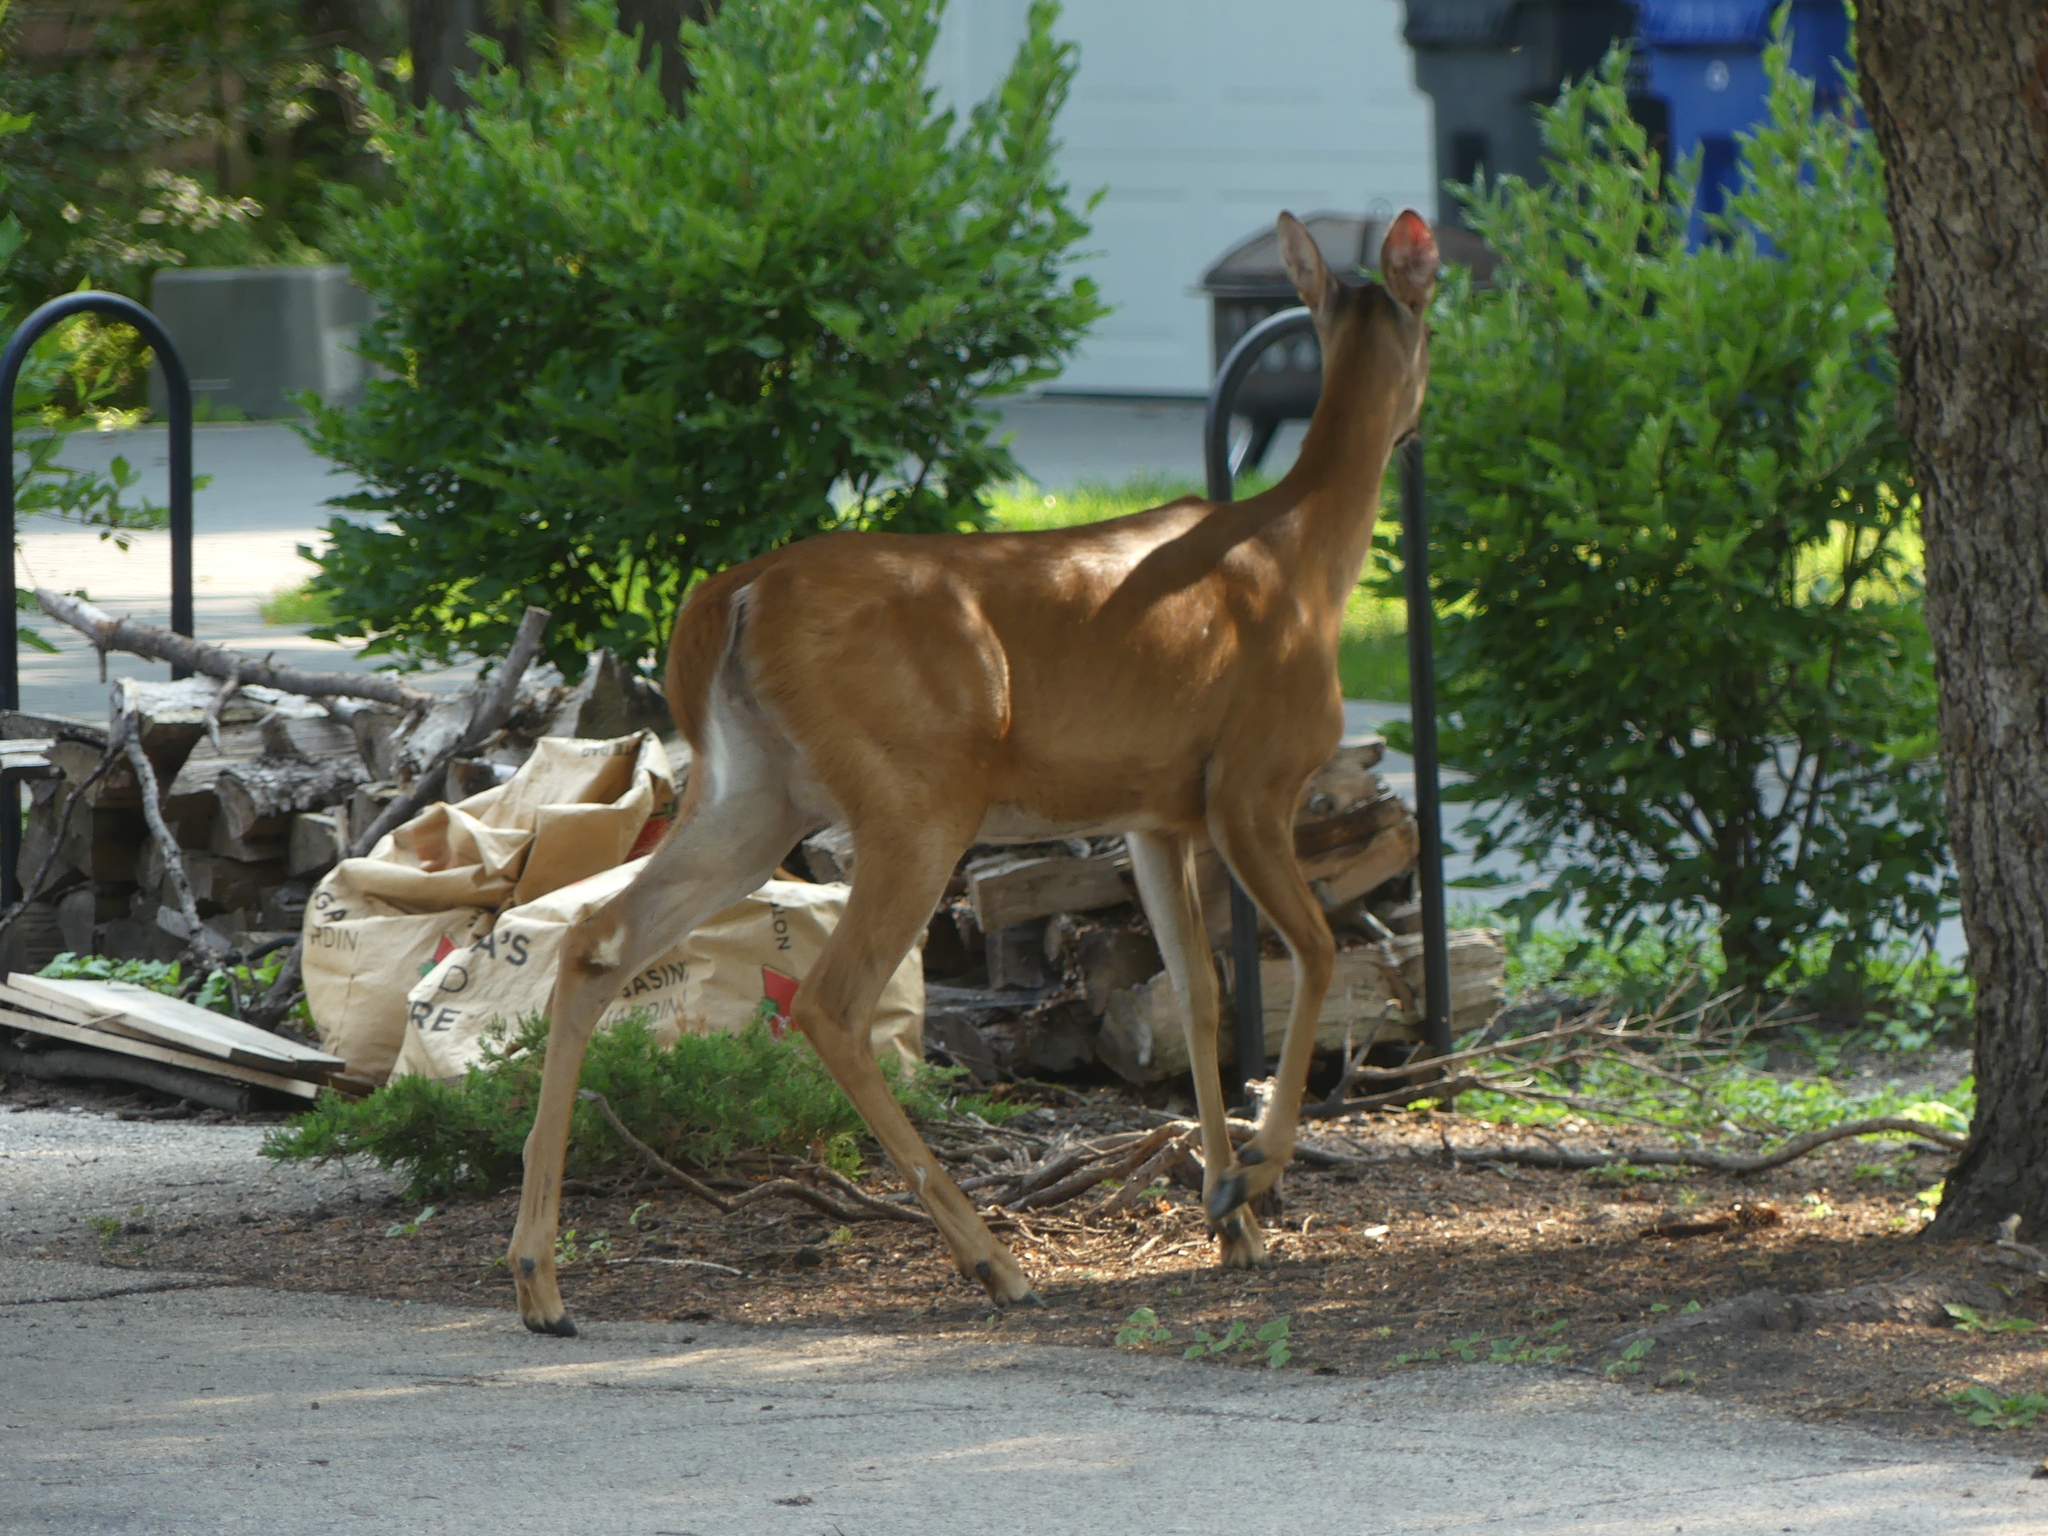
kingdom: Animalia
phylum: Chordata
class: Mammalia
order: Artiodactyla
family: Cervidae
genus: Odocoileus
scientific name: Odocoileus virginianus
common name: White-tailed deer
